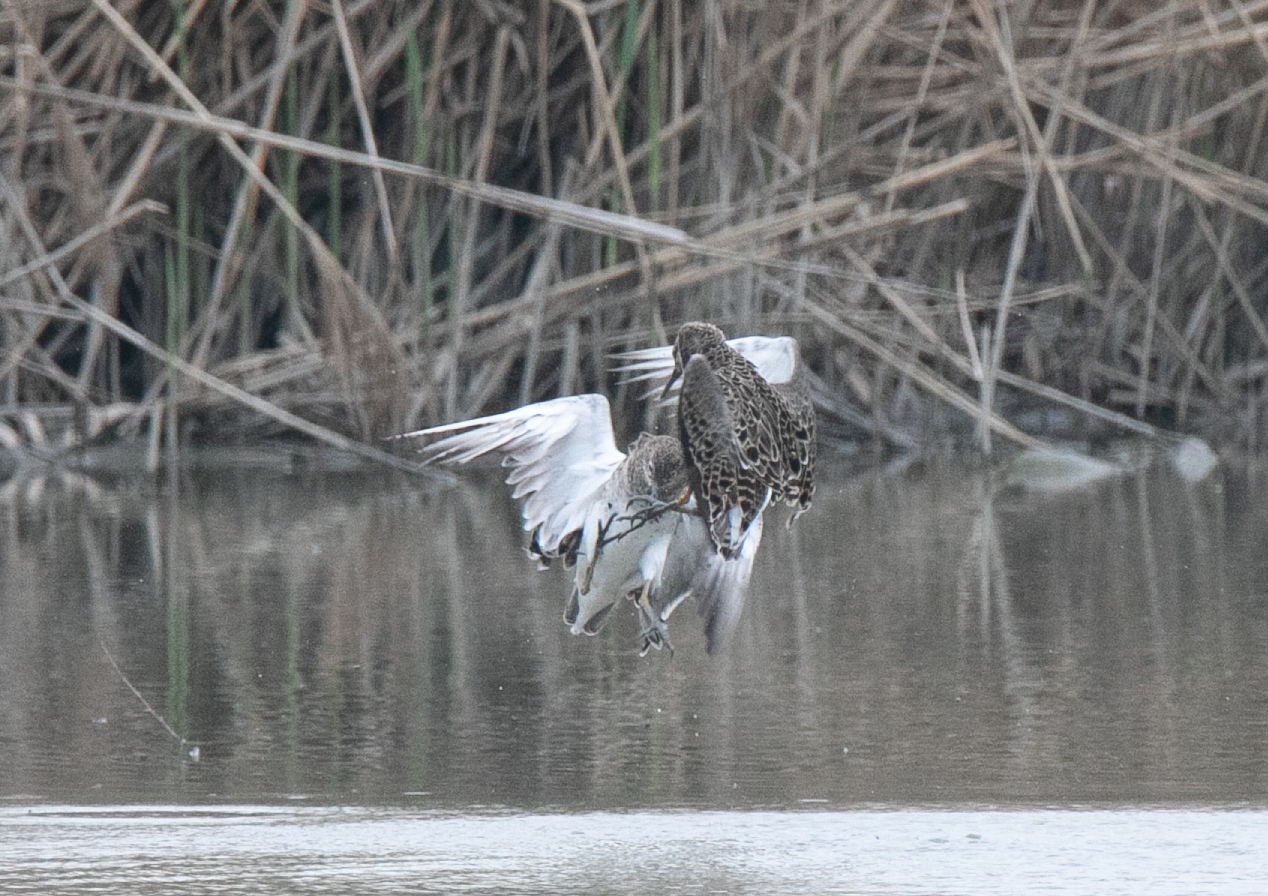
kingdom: Animalia
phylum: Chordata
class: Aves
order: Charadriiformes
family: Scolopacidae
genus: Calidris
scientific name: Calidris pugnax
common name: Ruff
